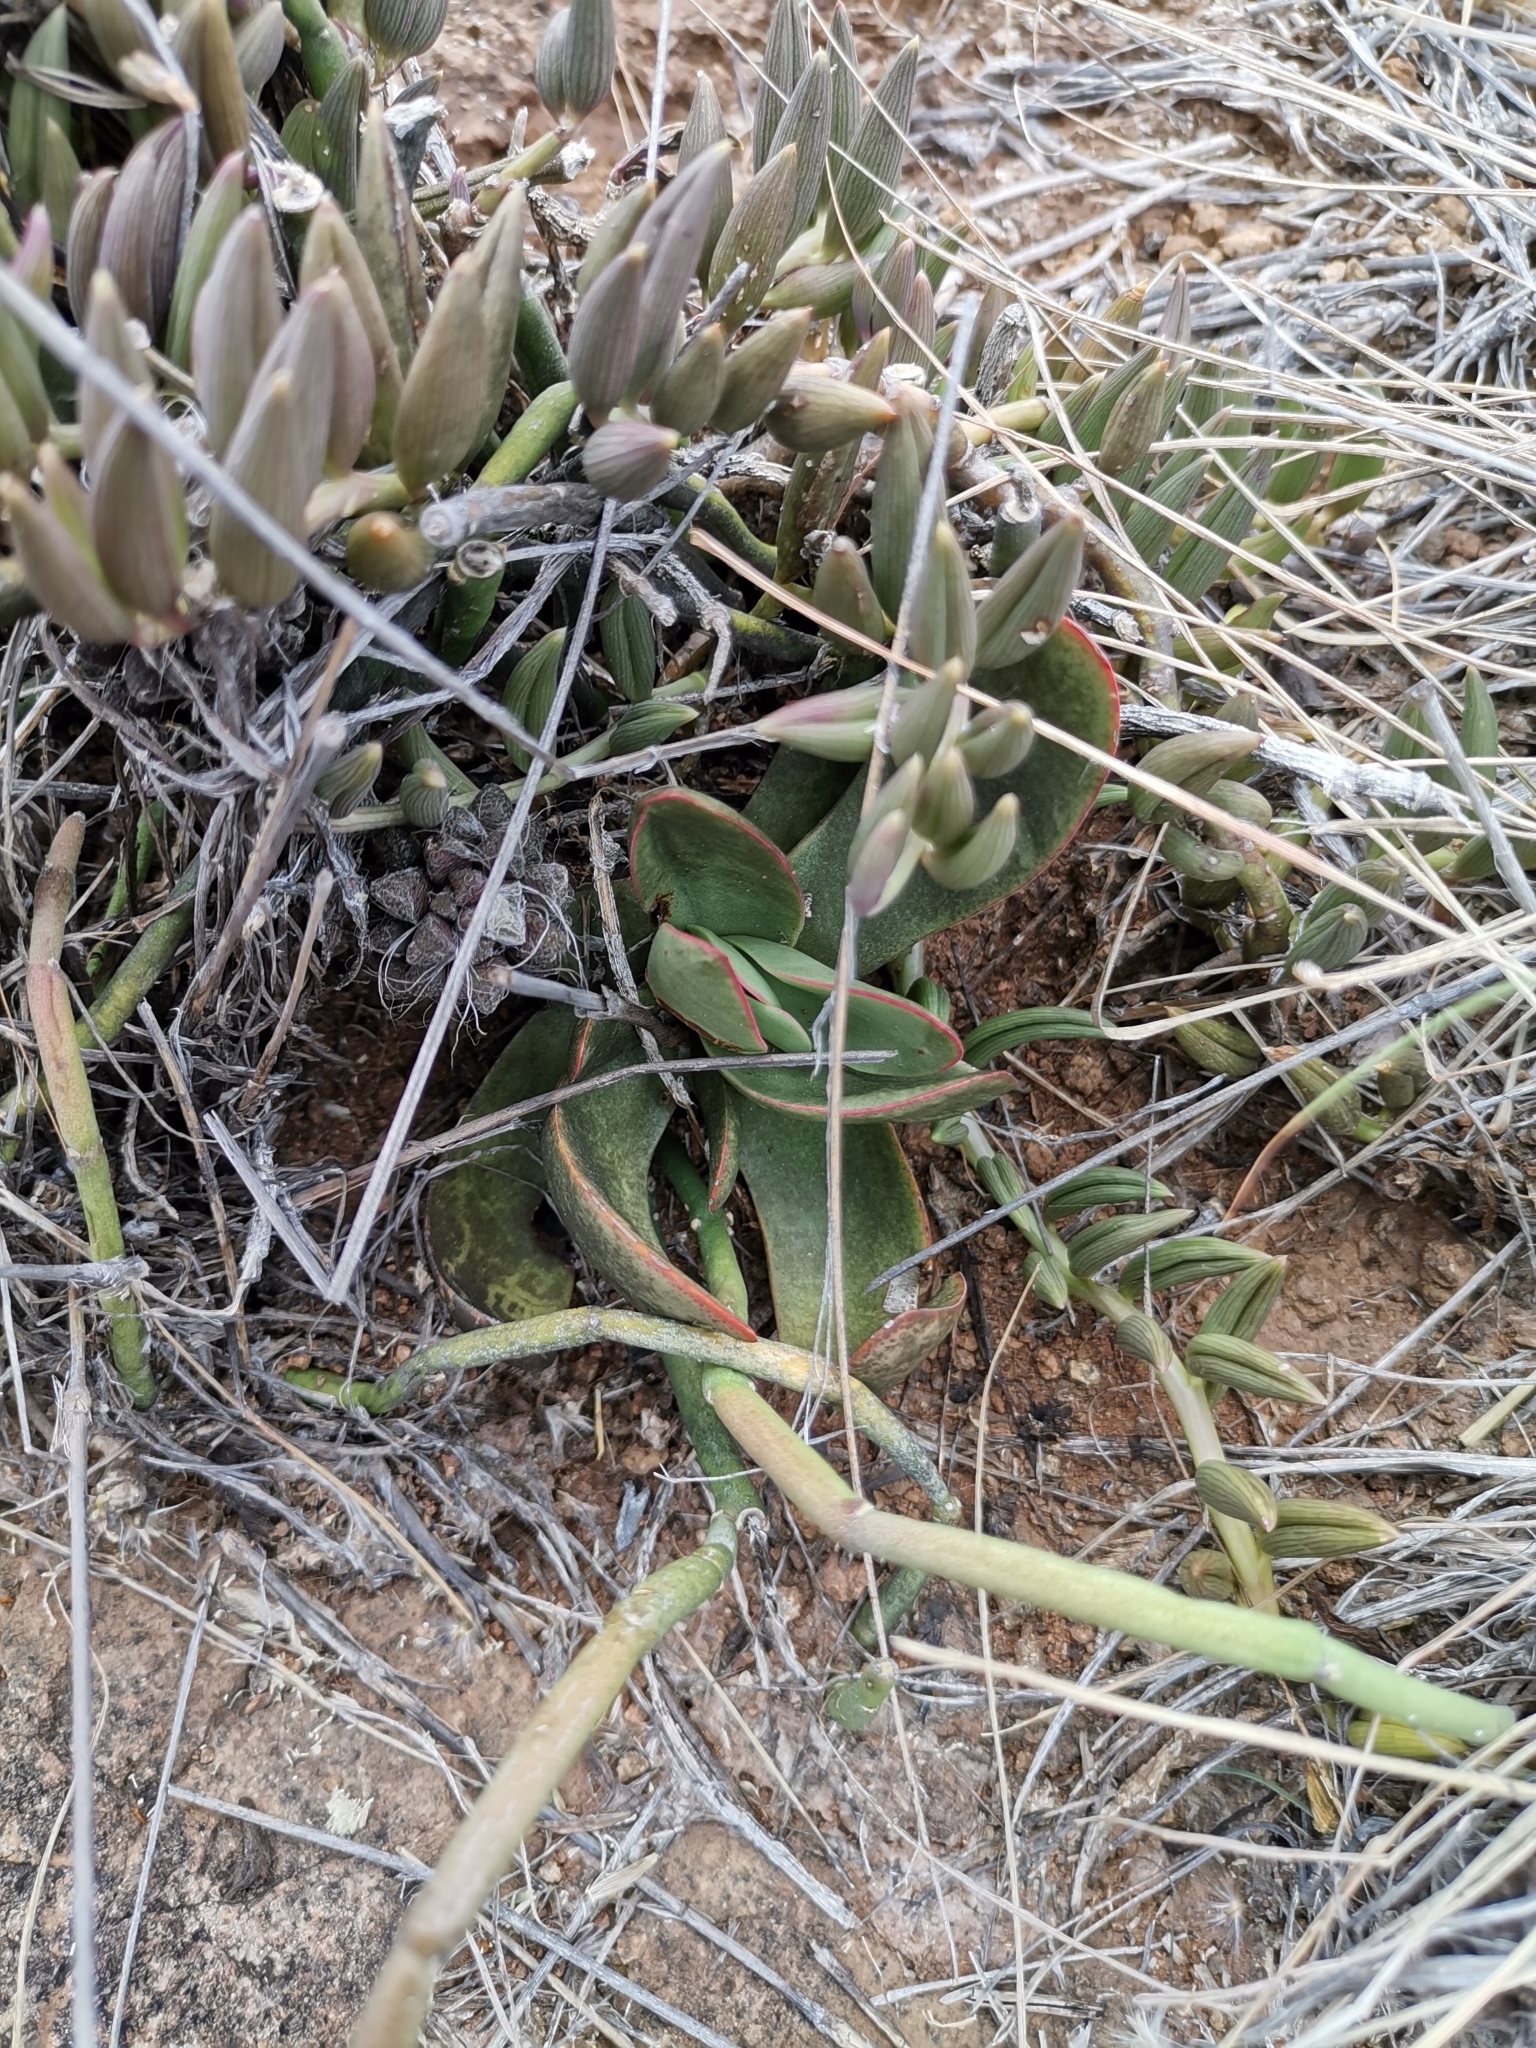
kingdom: Plantae
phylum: Tracheophyta
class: Magnoliopsida
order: Saxifragales
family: Crassulaceae
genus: Crassula
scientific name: Crassula nudicaulis
